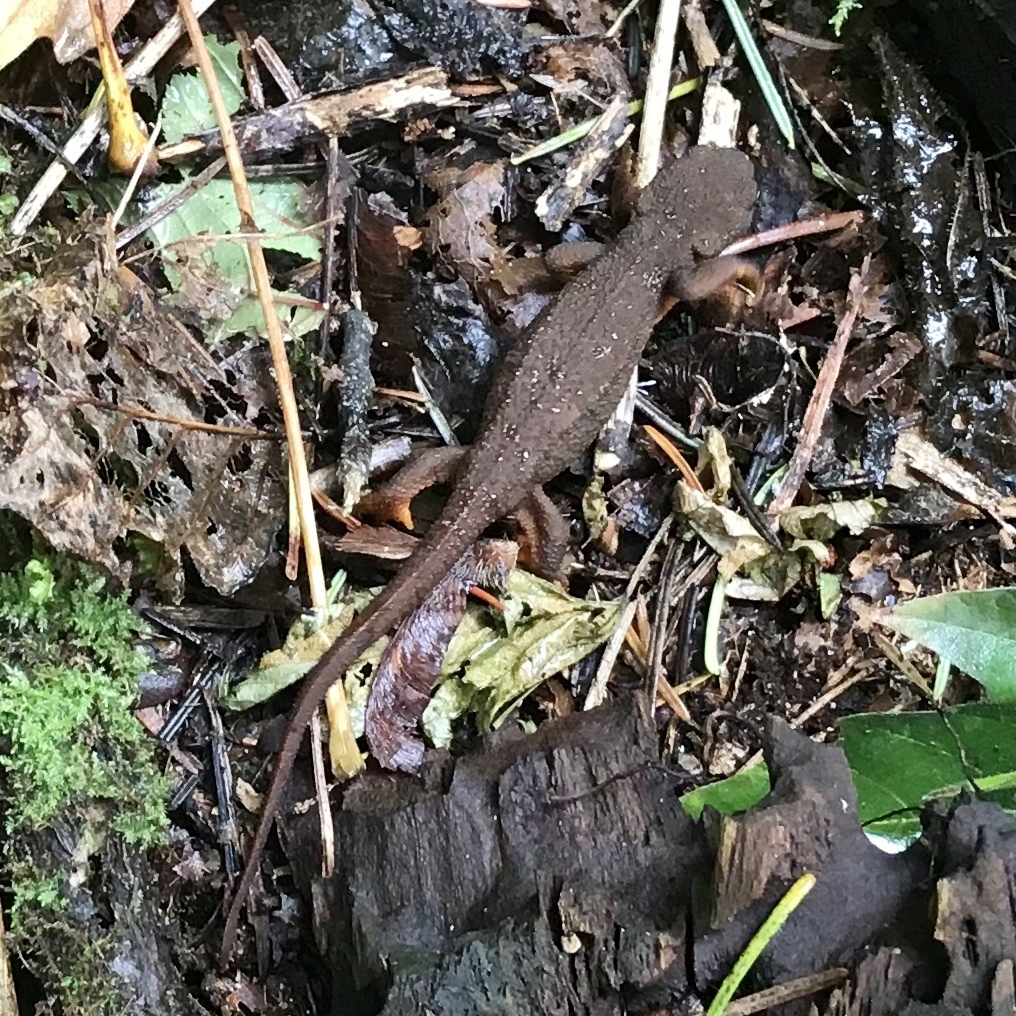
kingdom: Animalia
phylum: Chordata
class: Amphibia
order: Caudata
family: Salamandridae
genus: Taricha
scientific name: Taricha granulosa
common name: Roughskin newt
